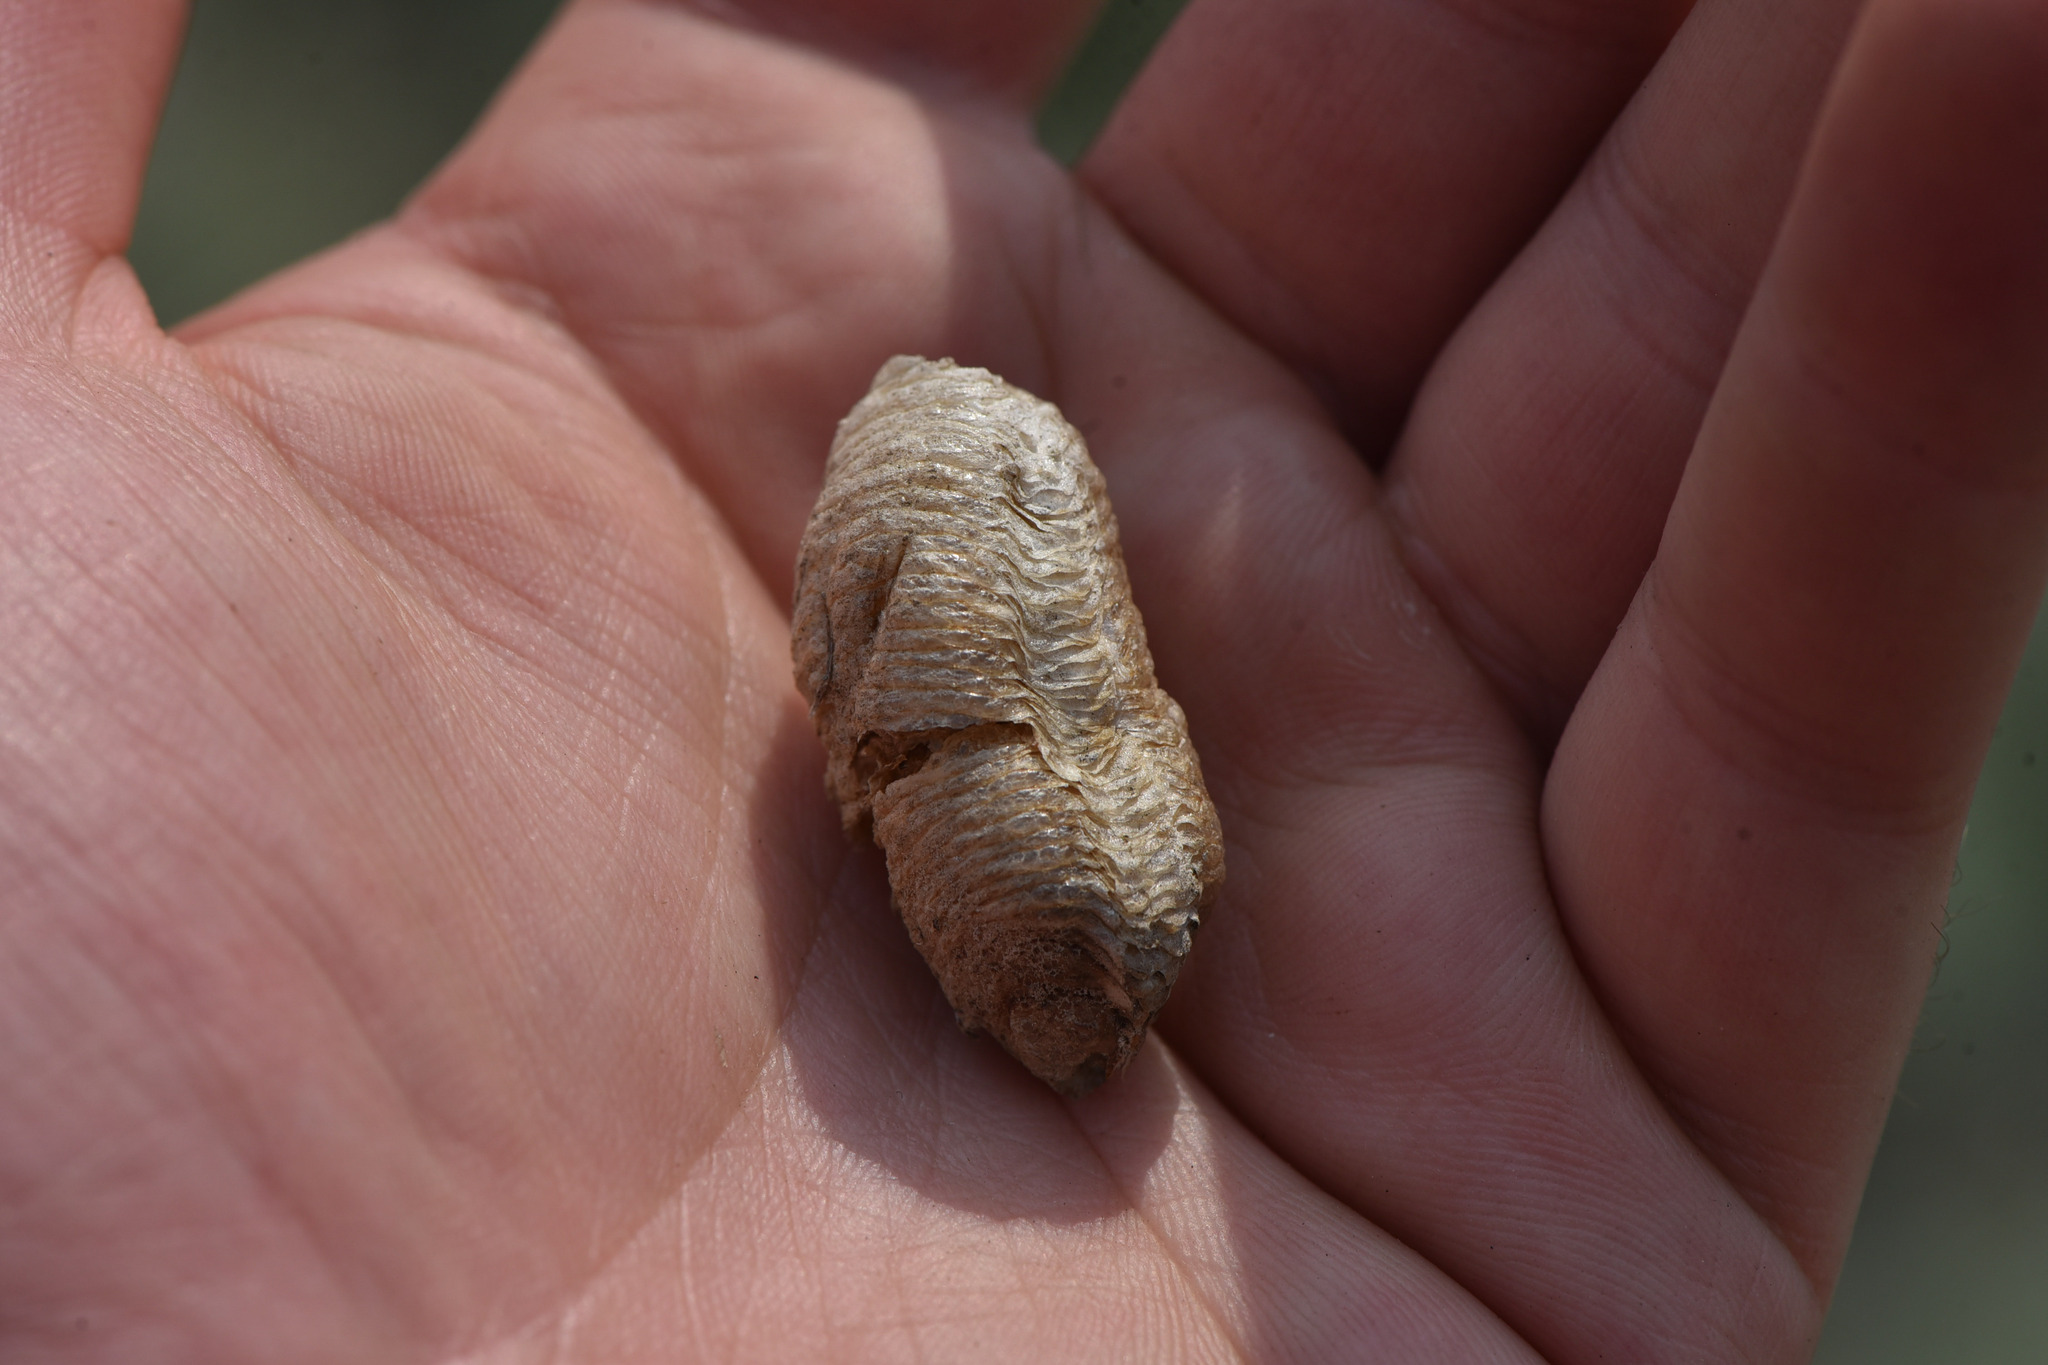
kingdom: Animalia
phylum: Arthropoda
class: Insecta
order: Mantodea
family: Mantidae
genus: Mantis
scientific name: Mantis religiosa
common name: Praying mantis
